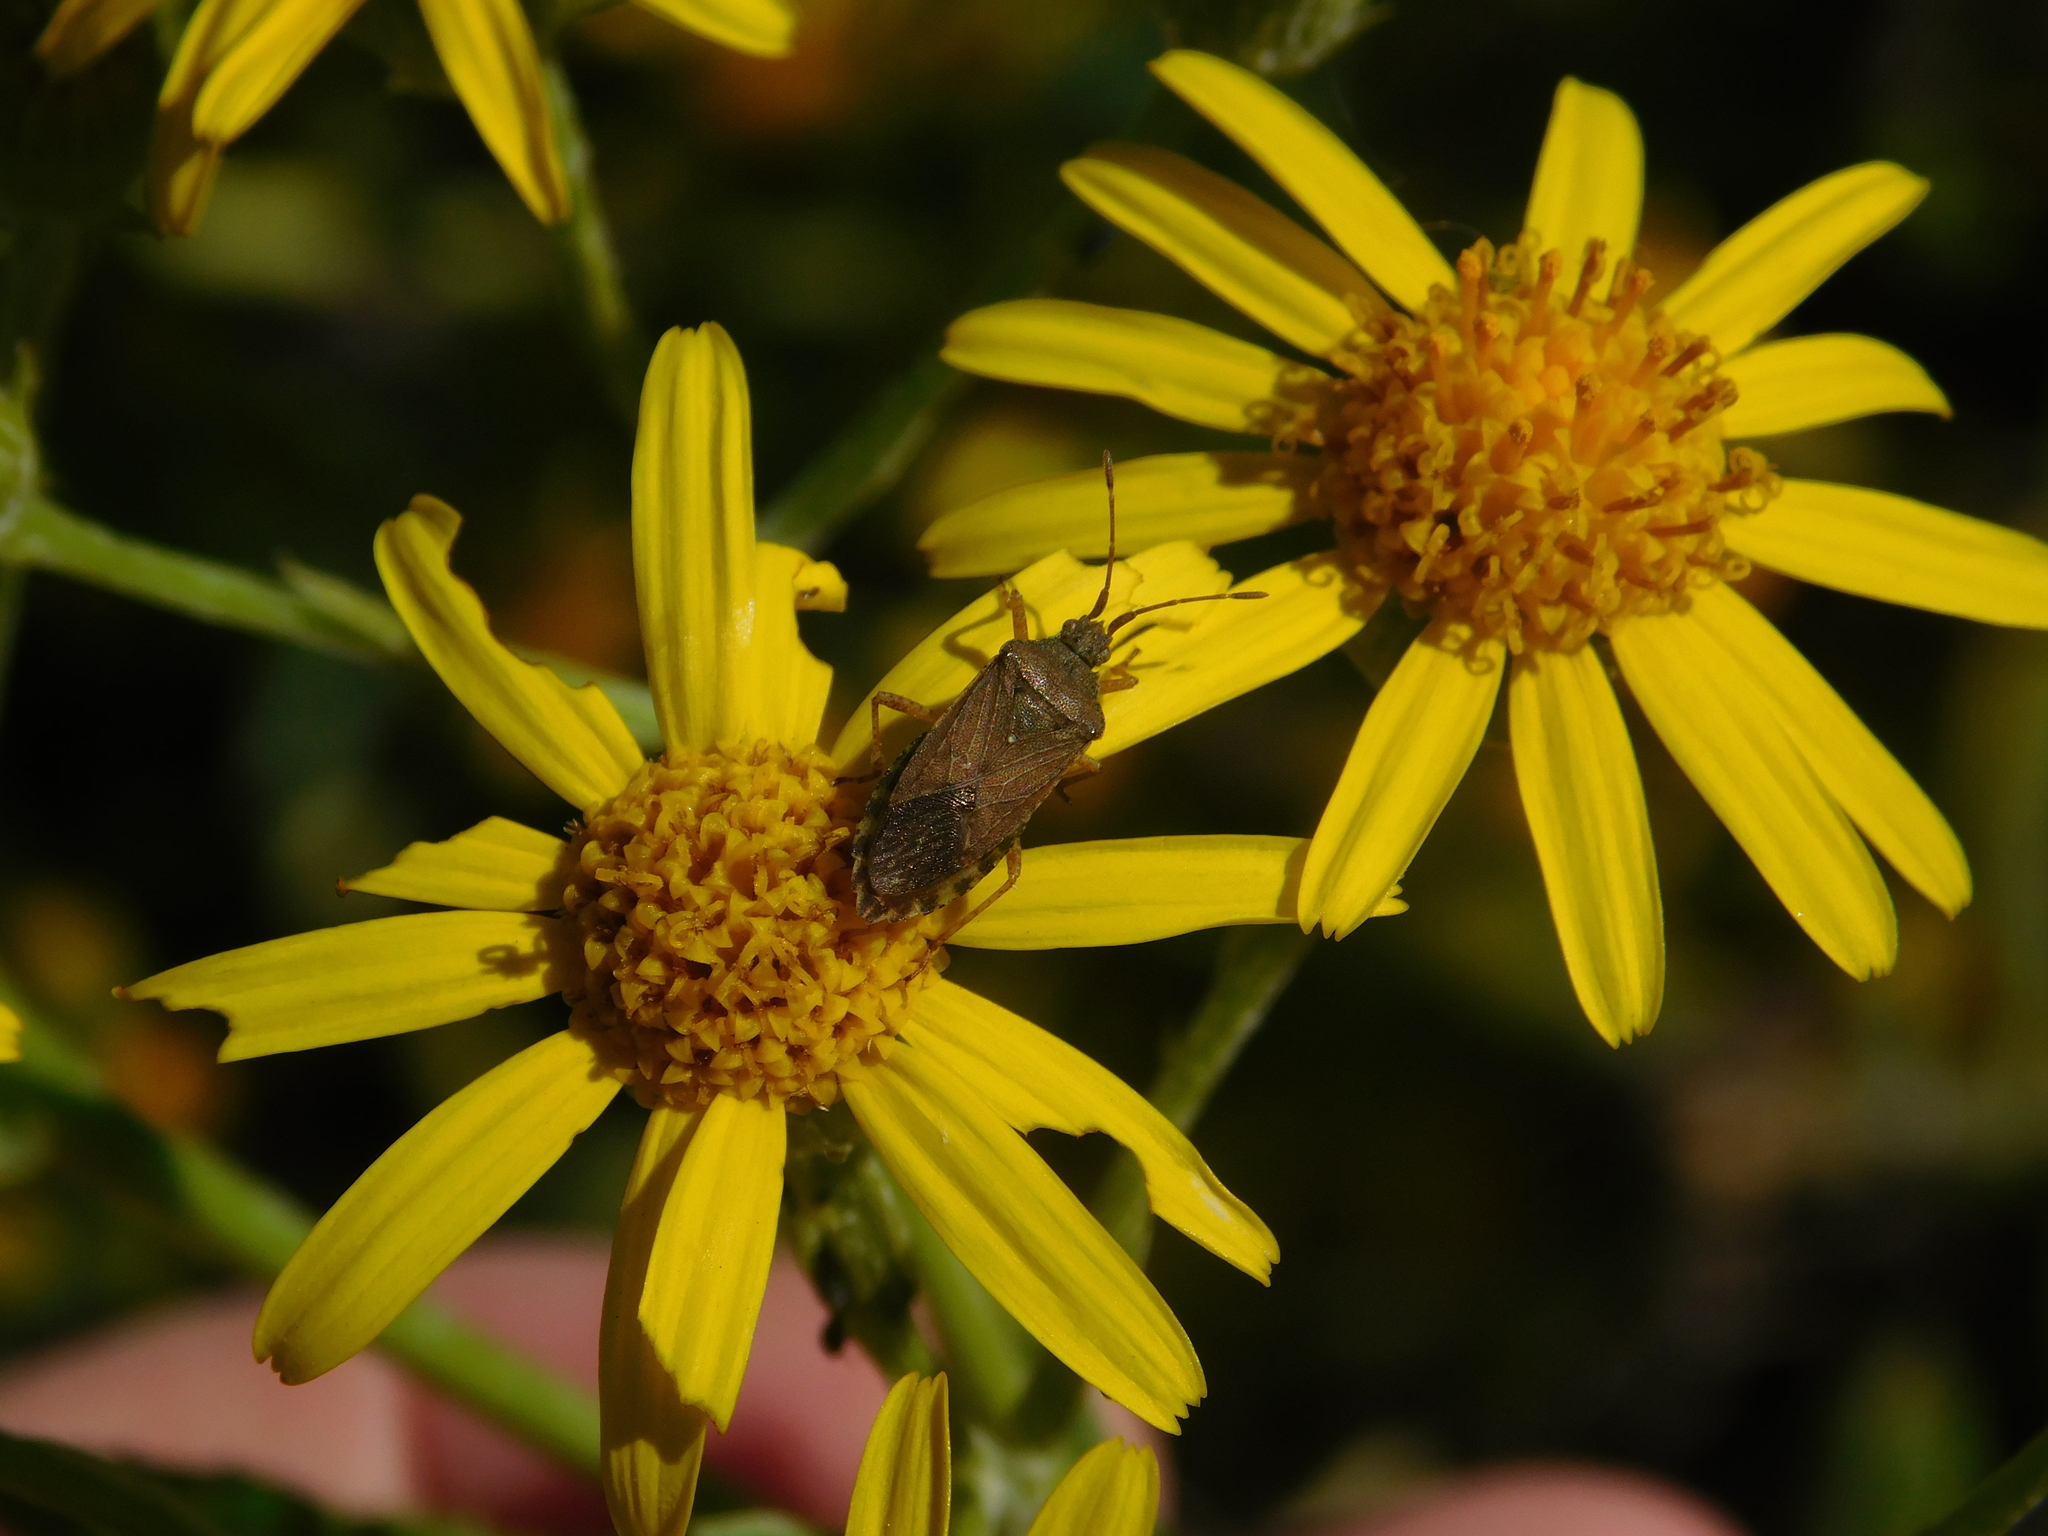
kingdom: Animalia
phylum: Arthropoda
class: Insecta
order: Hemiptera
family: Coreidae
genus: Althos
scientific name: Althos obscurator
